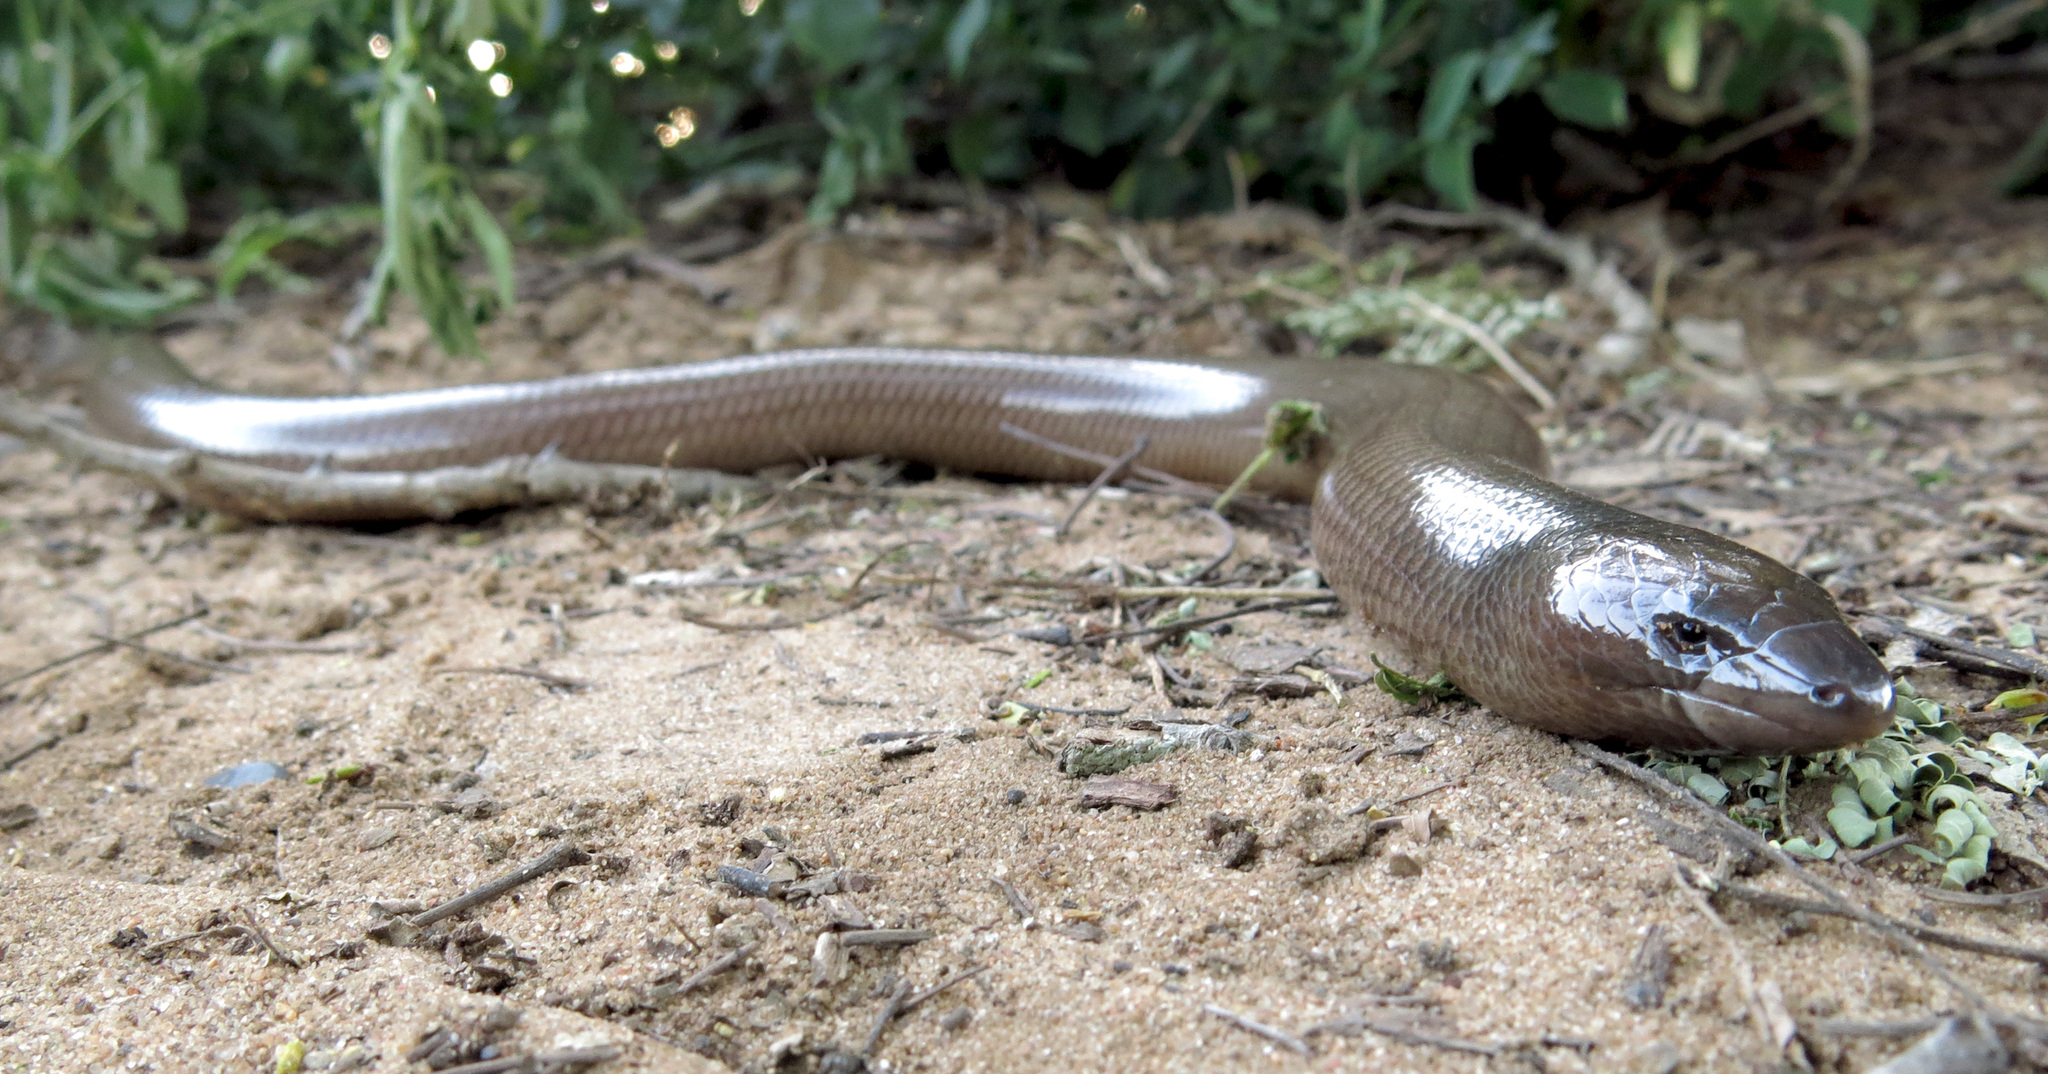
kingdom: Animalia
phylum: Chordata
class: Squamata
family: Scincidae
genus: Acontias
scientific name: Acontias plumbeus
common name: Giant lance skink
